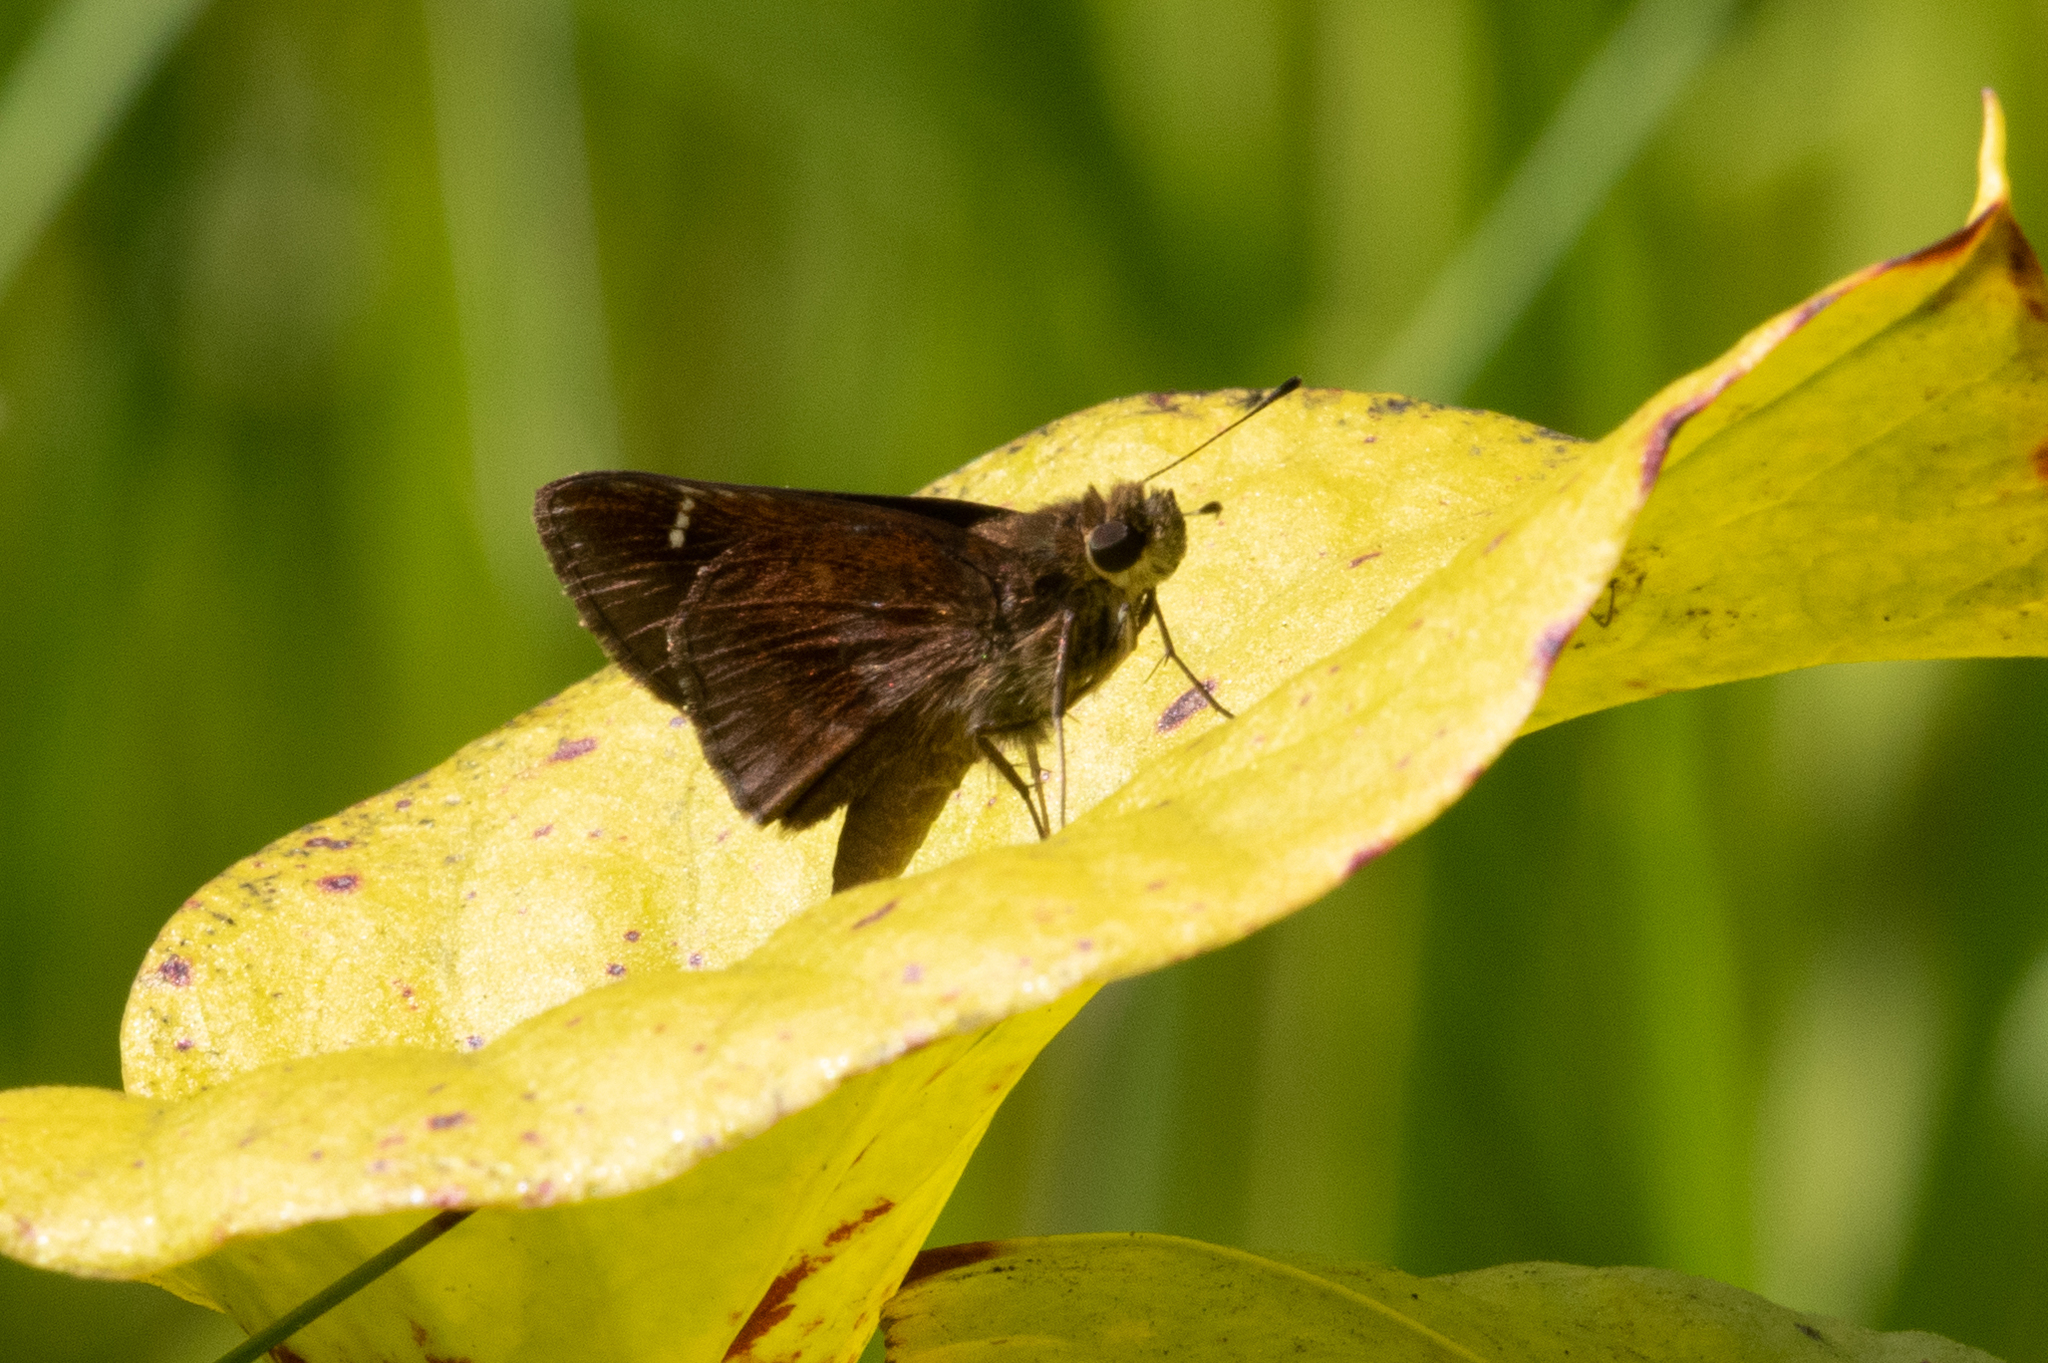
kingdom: Animalia
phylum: Arthropoda
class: Insecta
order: Lepidoptera
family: Hesperiidae
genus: Lerema
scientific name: Lerema accius
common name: Clouded skipper
